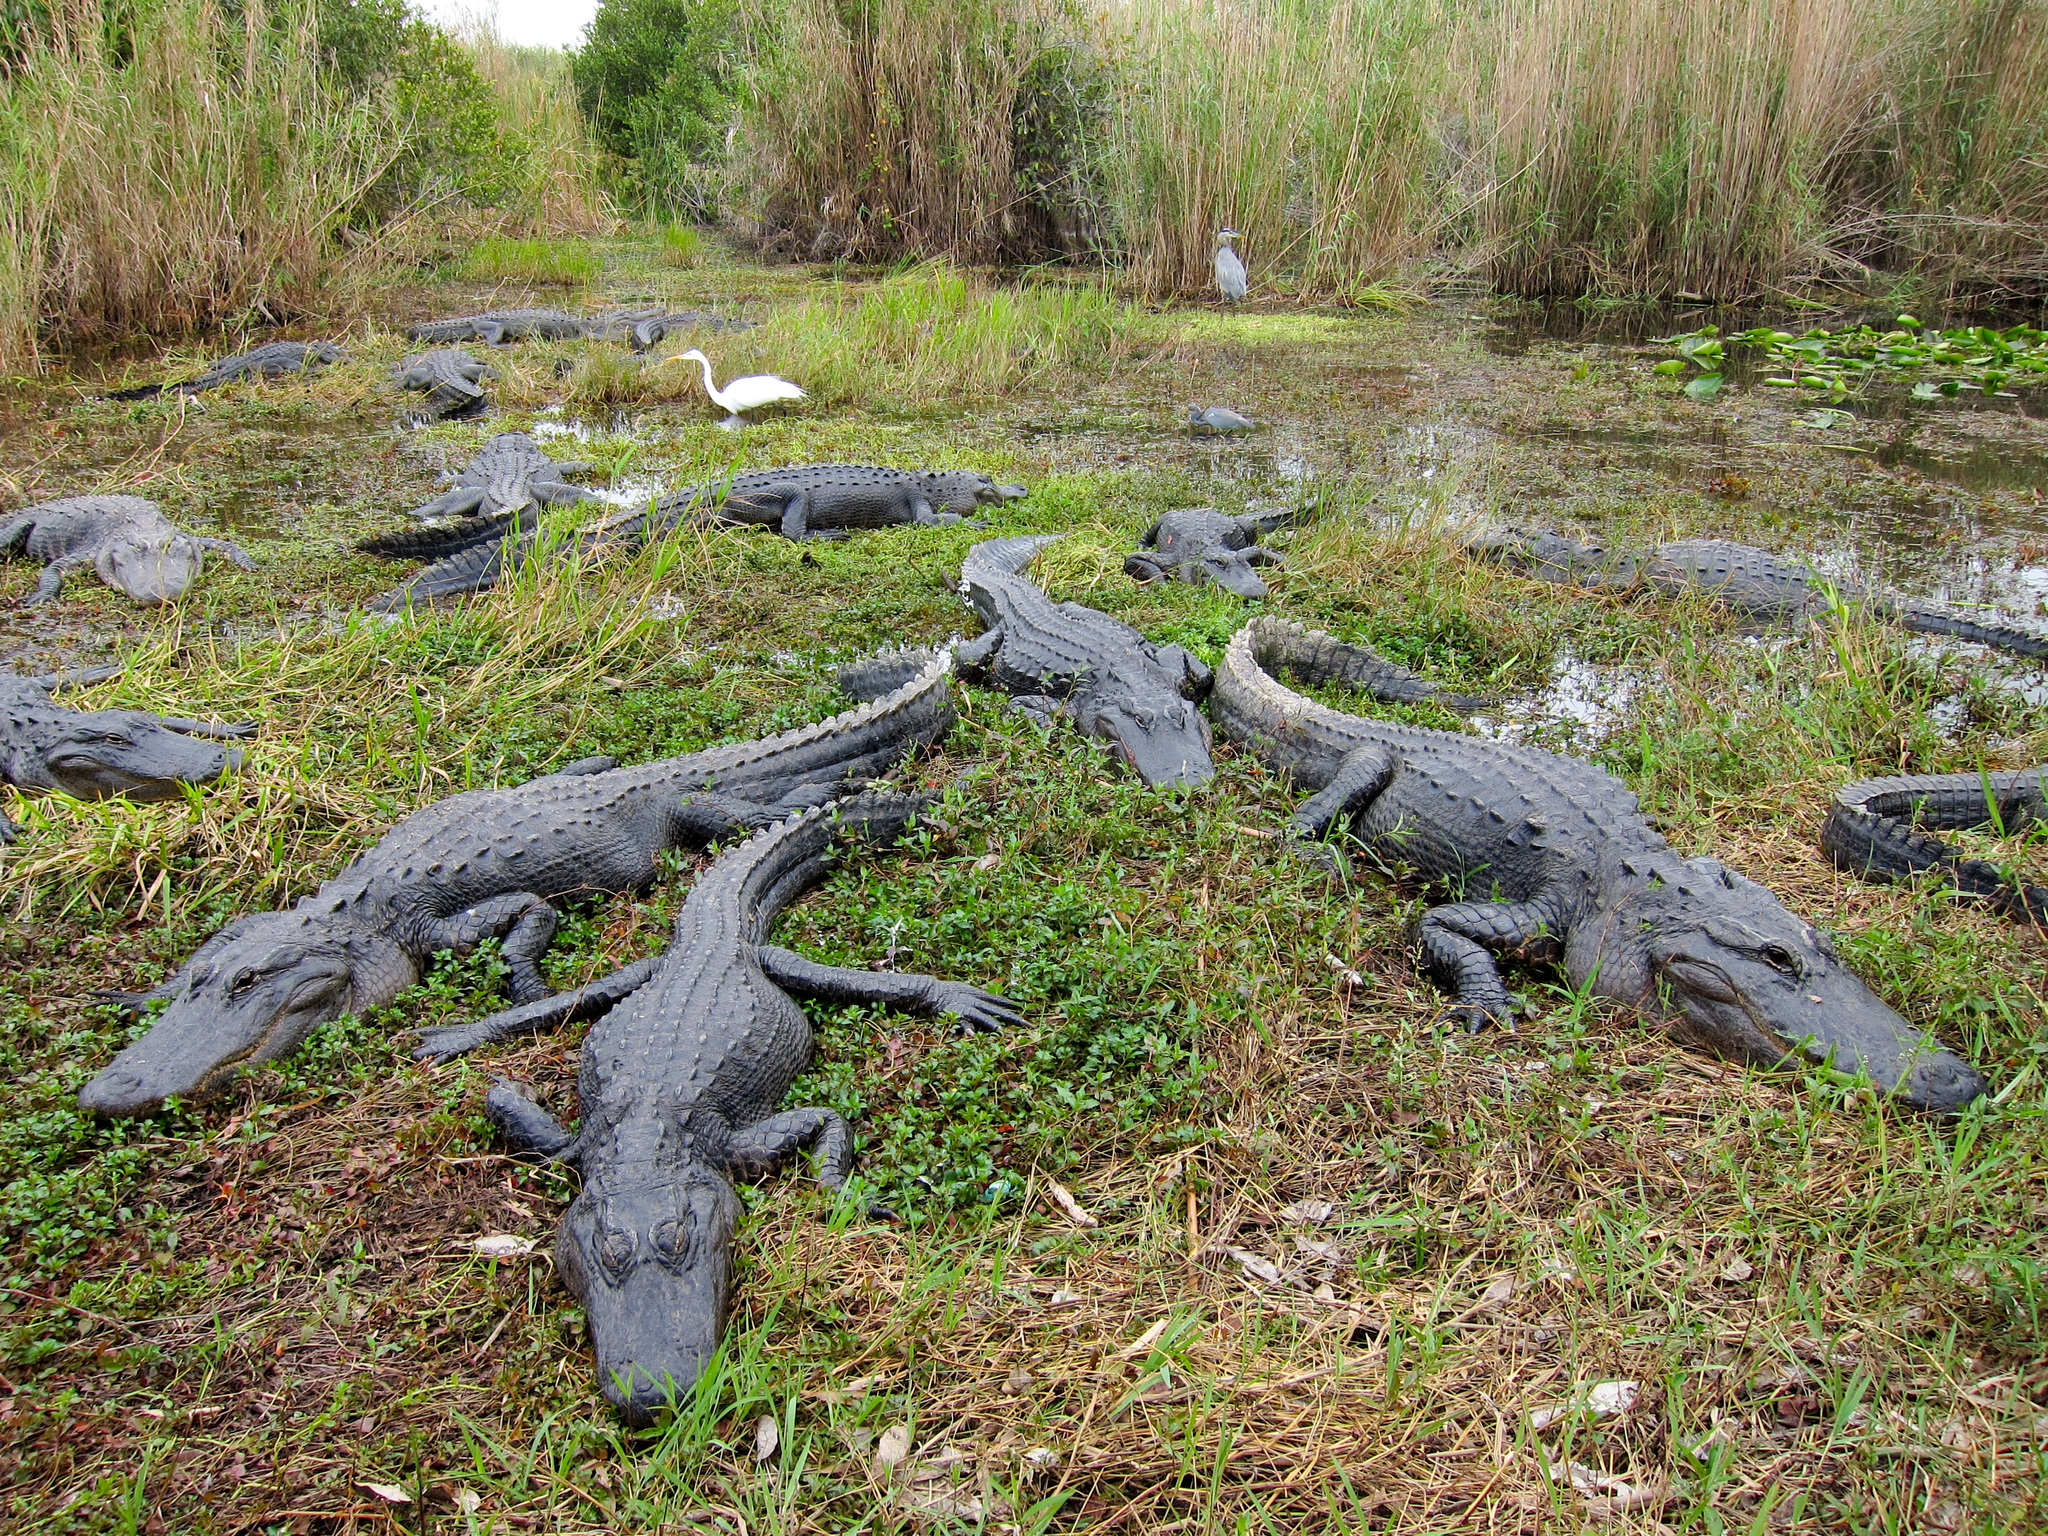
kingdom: Animalia
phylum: Chordata
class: Crocodylia
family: Alligatoridae
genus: Alligator
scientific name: Alligator mississippiensis
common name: American alligator
